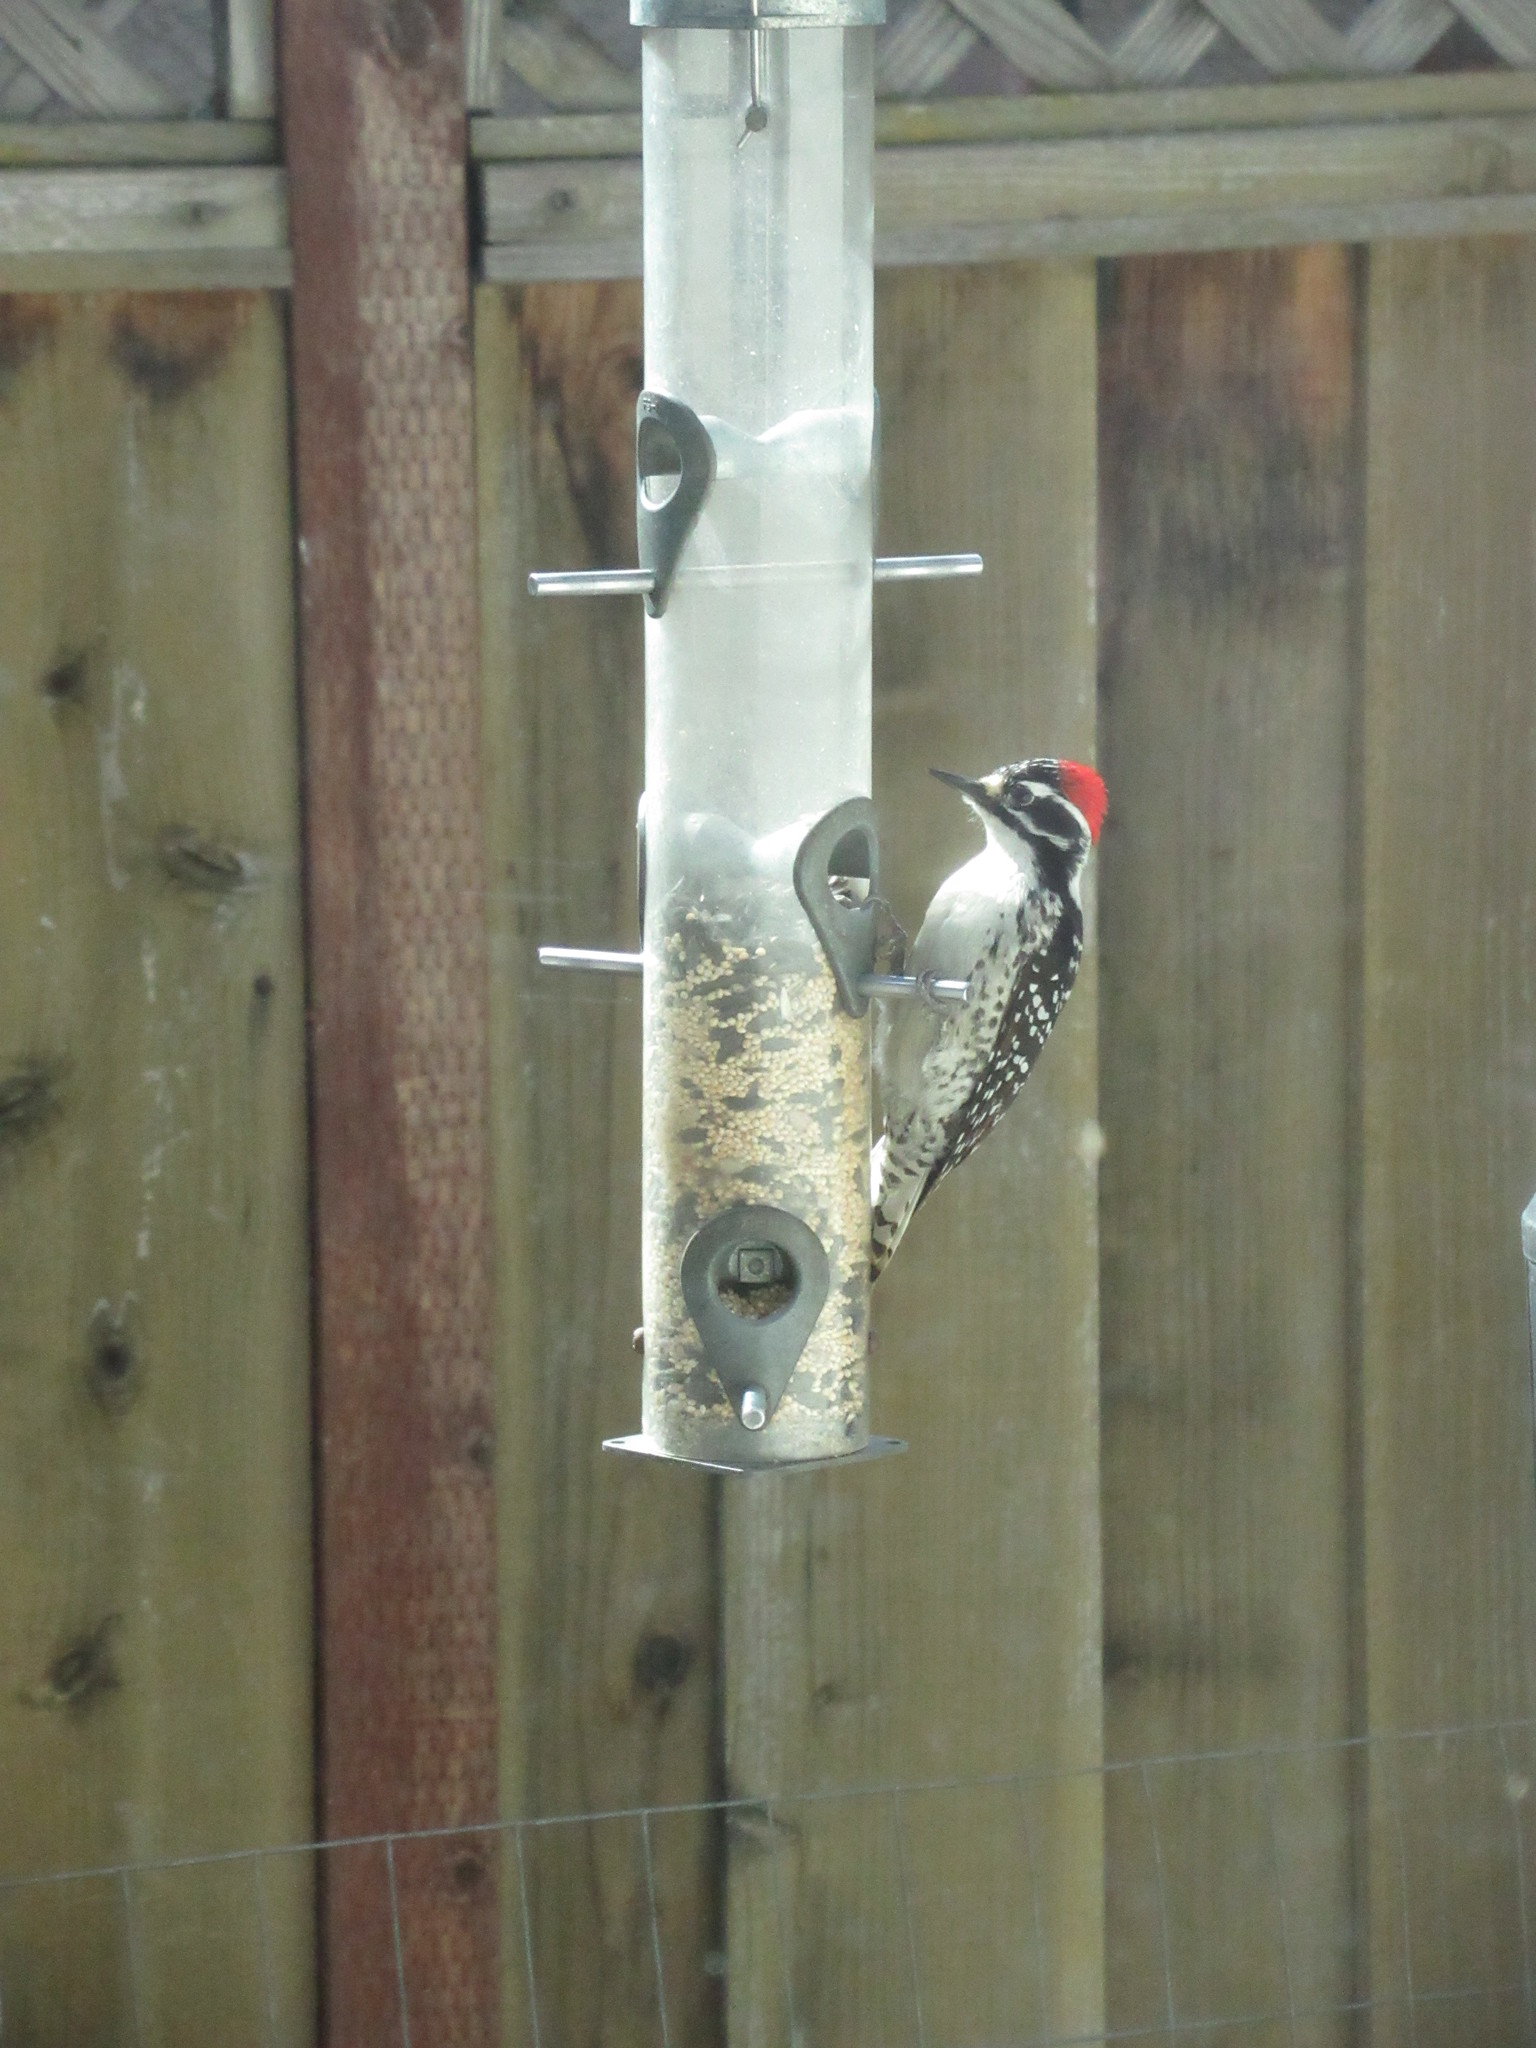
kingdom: Animalia
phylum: Chordata
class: Aves
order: Piciformes
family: Picidae
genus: Dryobates
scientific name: Dryobates nuttallii
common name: Nuttall's woodpecker
